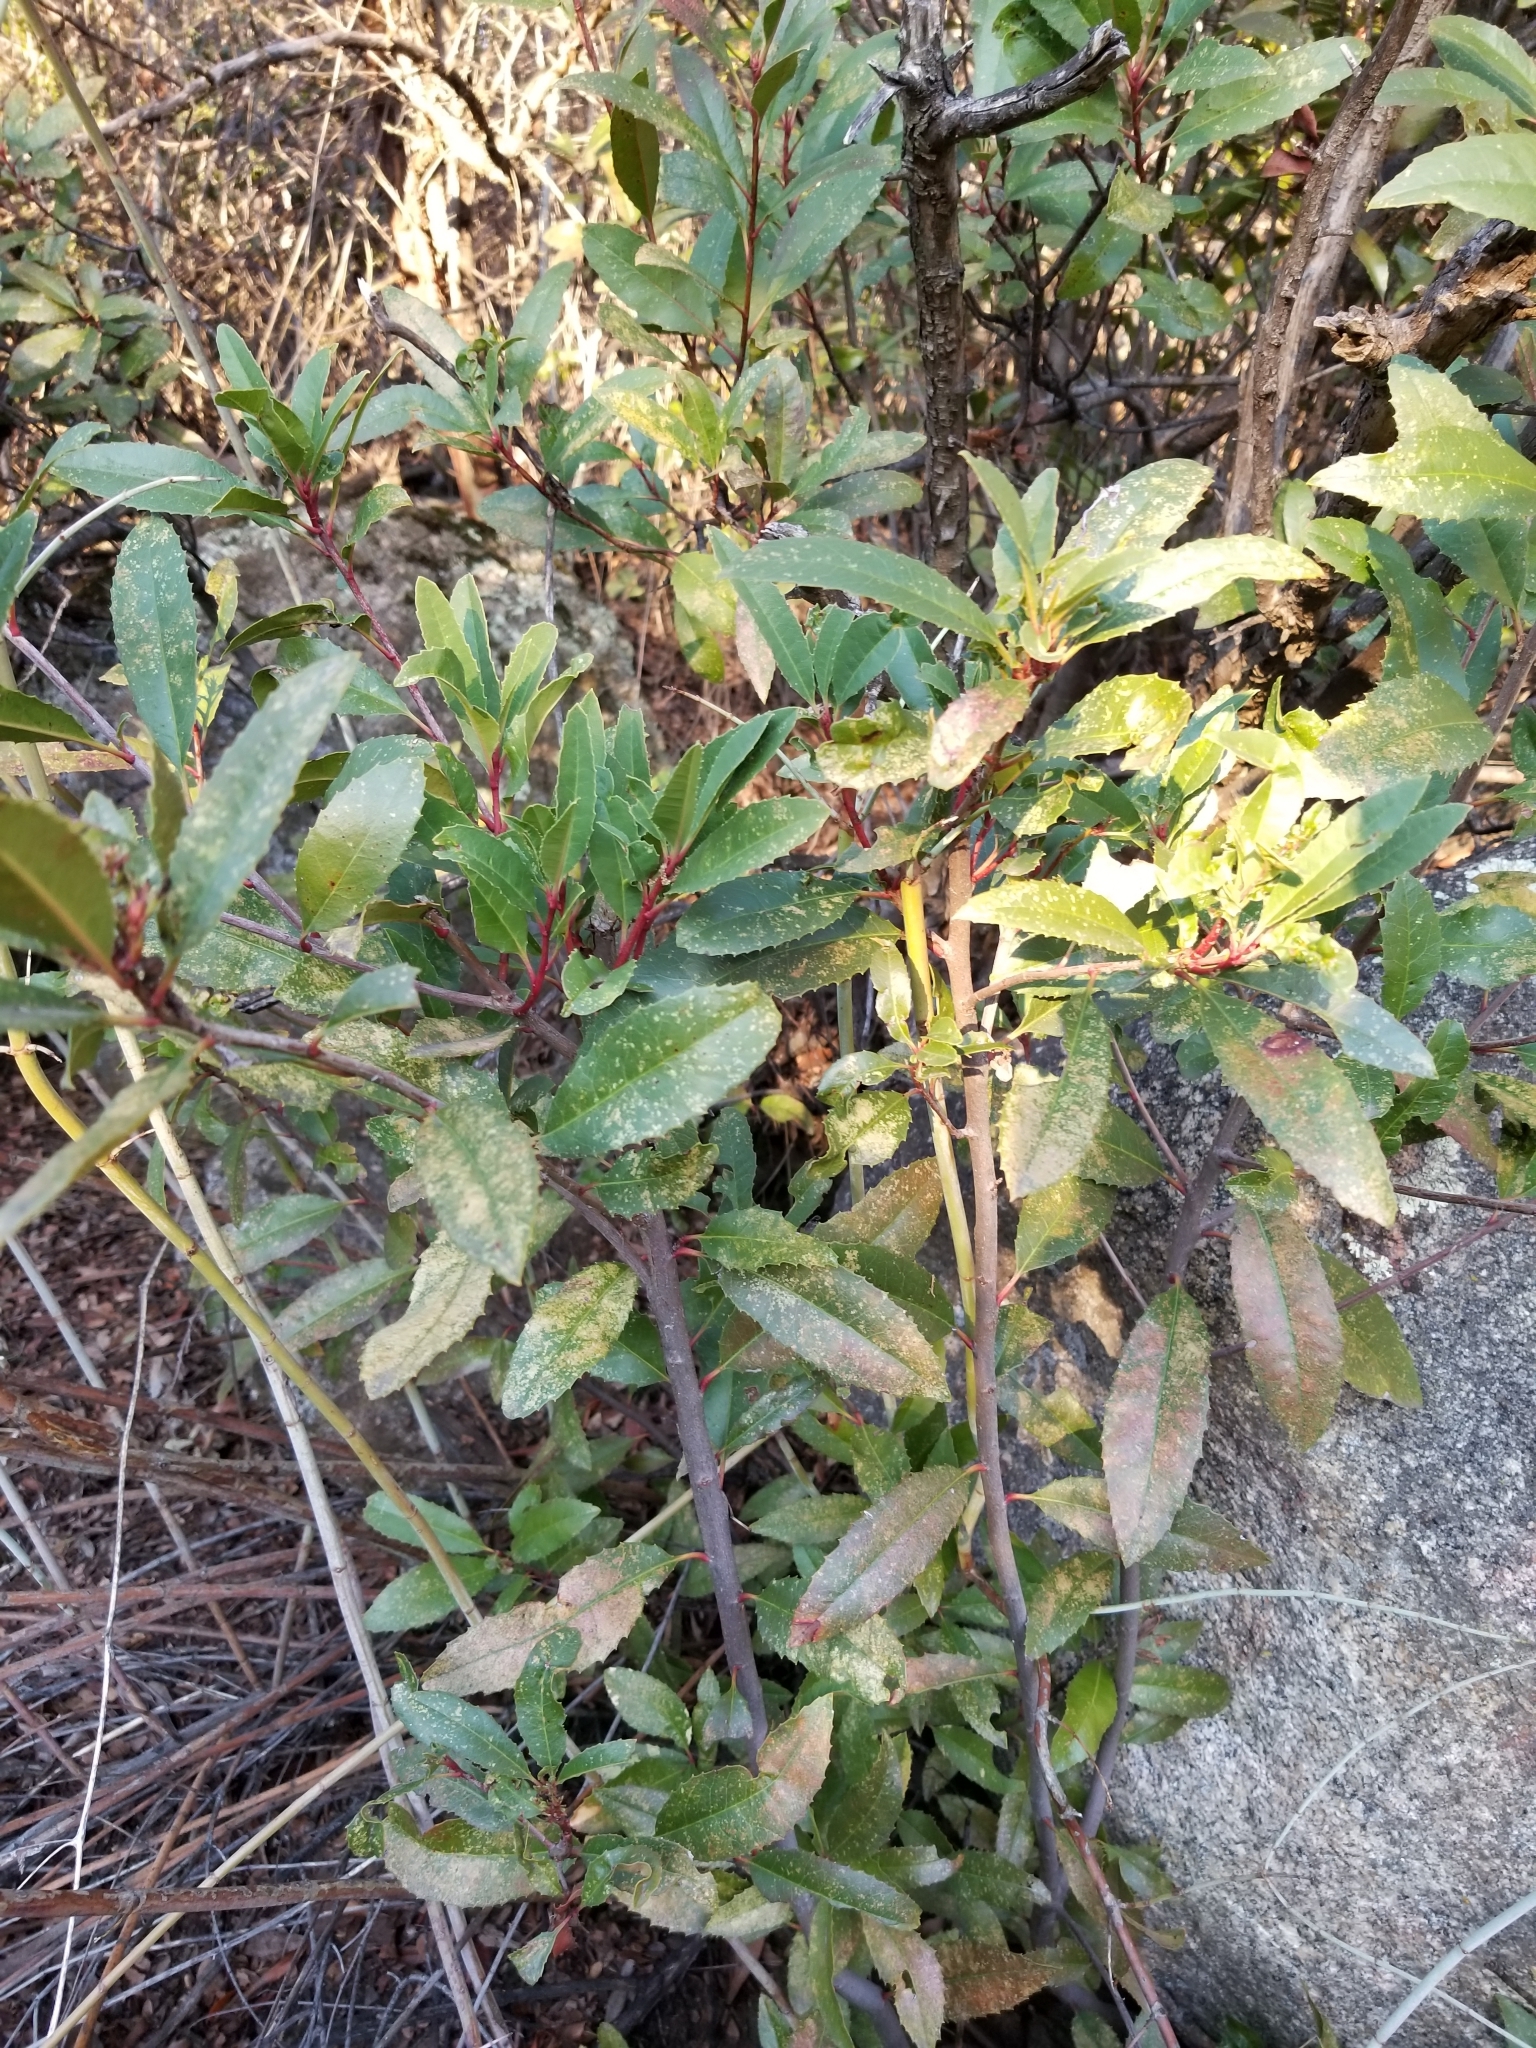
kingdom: Plantae
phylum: Tracheophyta
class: Magnoliopsida
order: Rosales
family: Rosaceae
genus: Heteromeles
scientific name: Heteromeles arbutifolia
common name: California-holly
